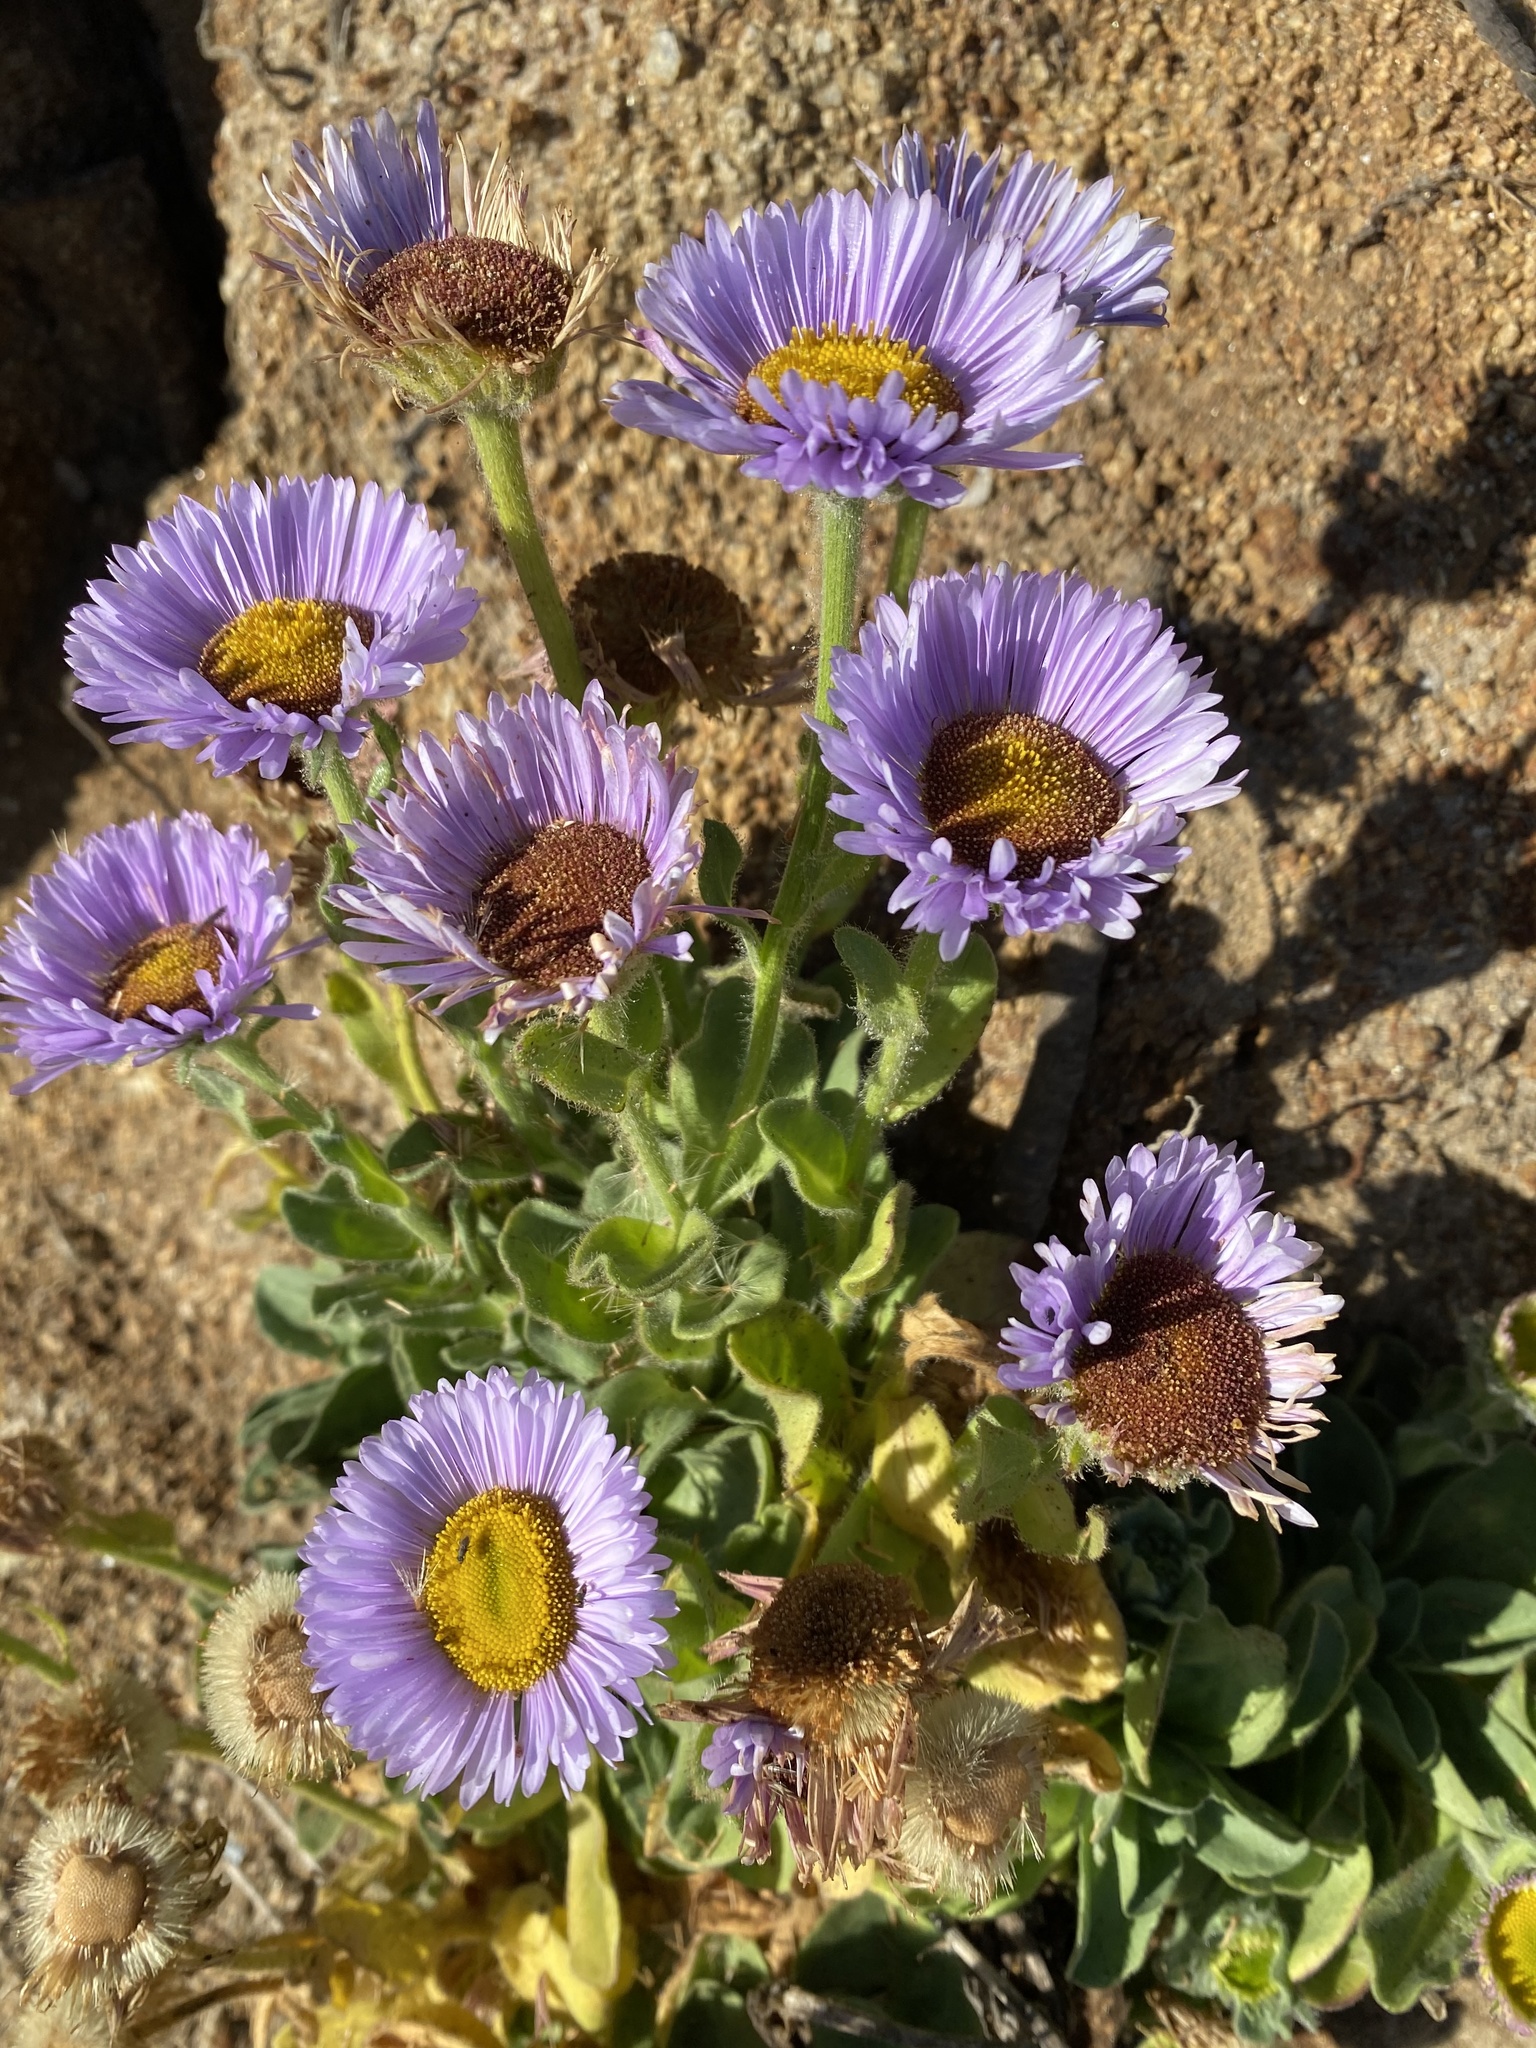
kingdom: Plantae
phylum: Tracheophyta
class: Magnoliopsida
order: Asterales
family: Asteraceae
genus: Erigeron
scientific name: Erigeron glaucus
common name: Seaside daisy
